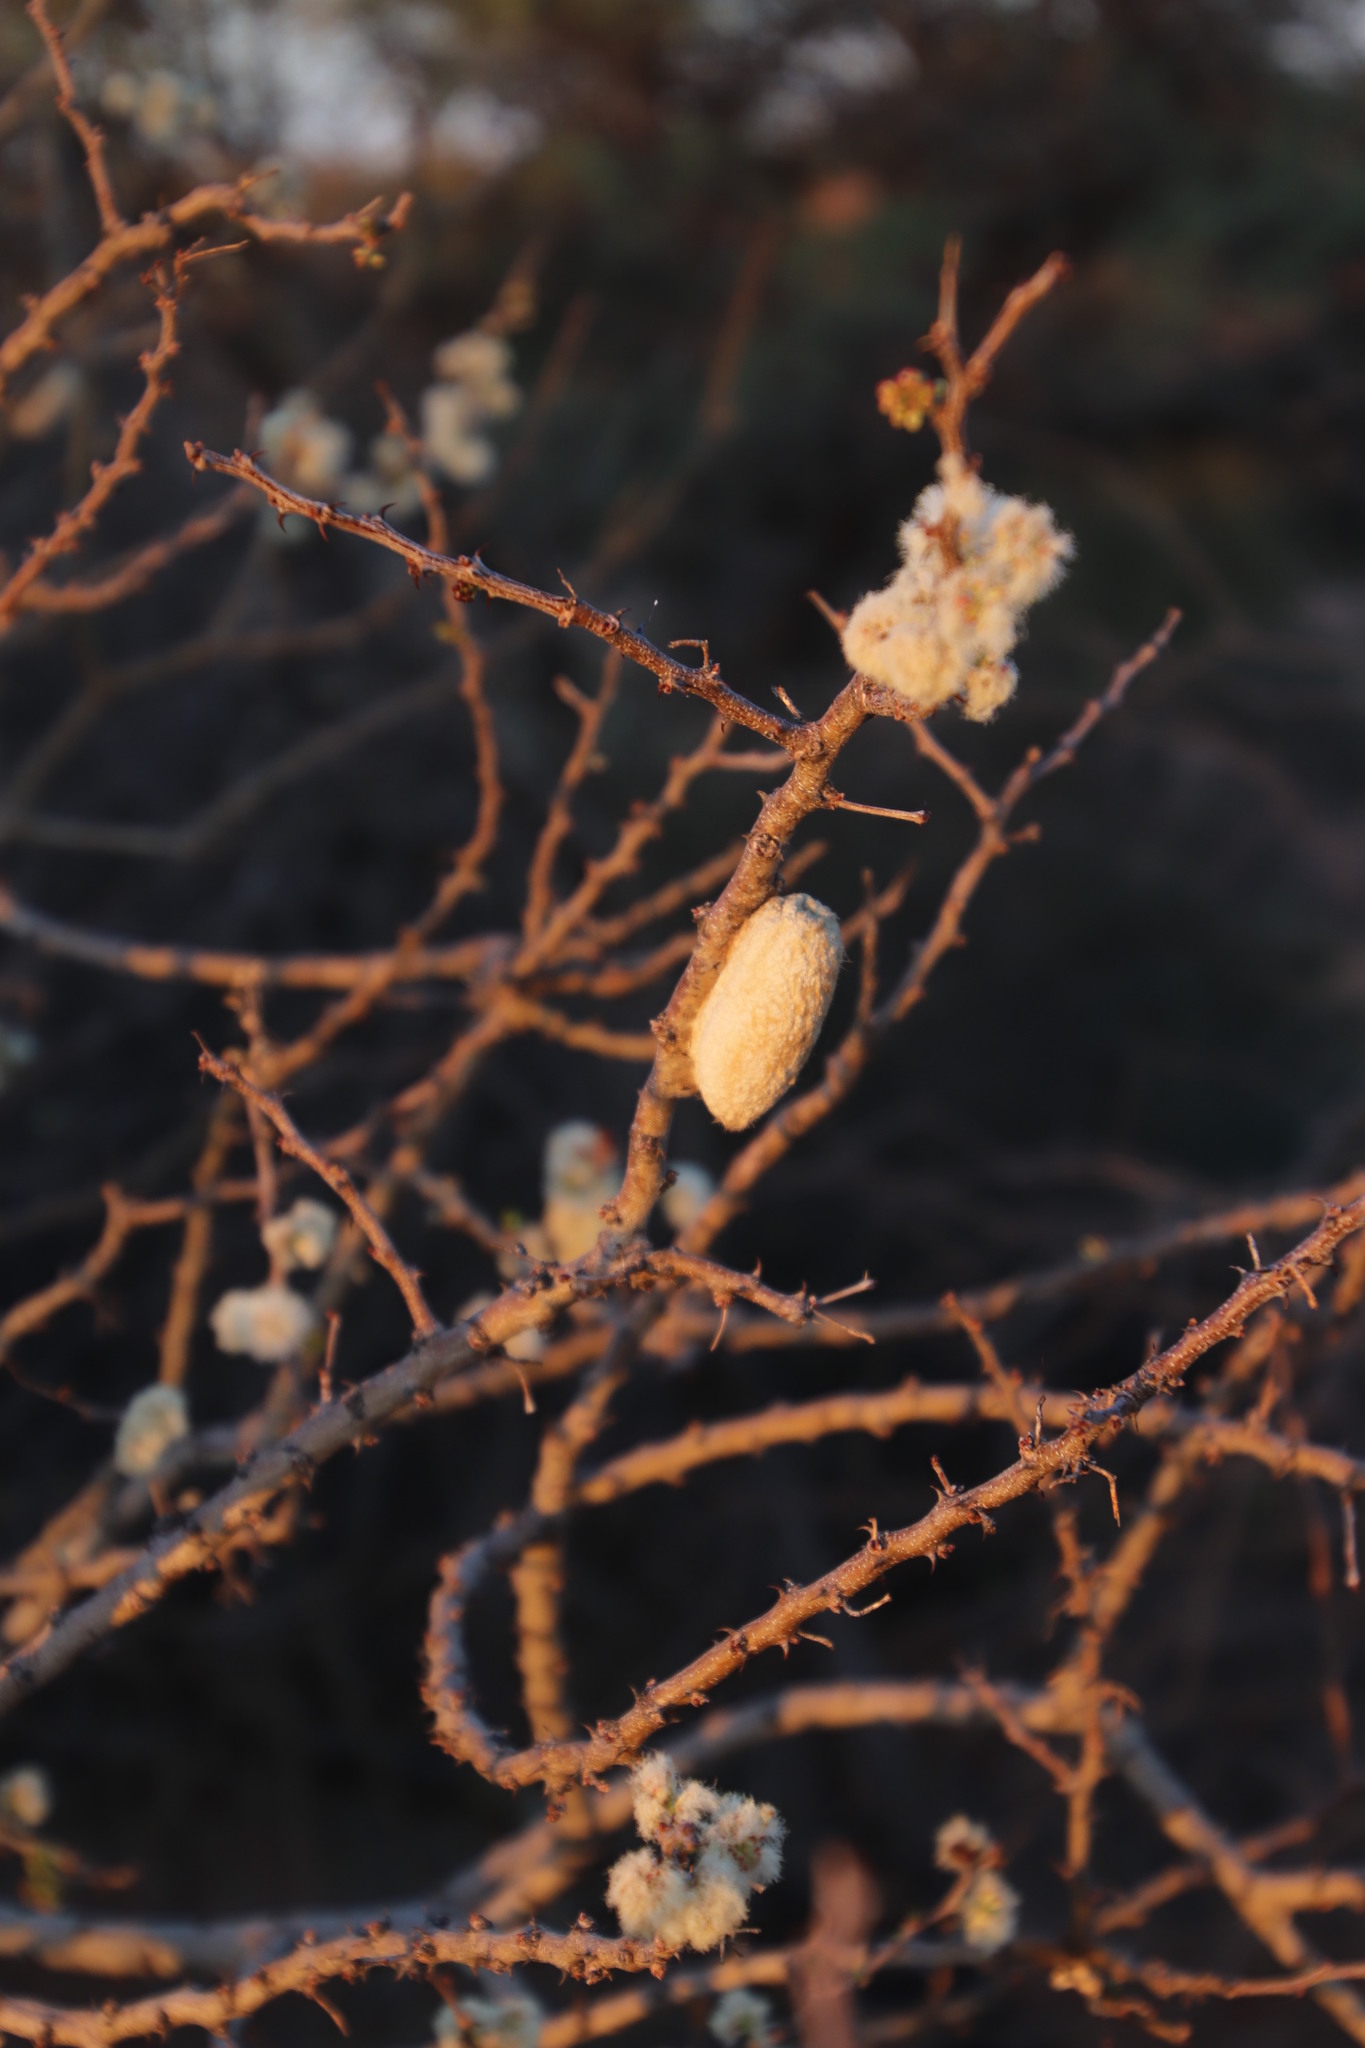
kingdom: Animalia
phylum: Arthropoda
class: Insecta
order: Lepidoptera
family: Lasiocampidae
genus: Gonometa
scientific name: Gonometa postica
